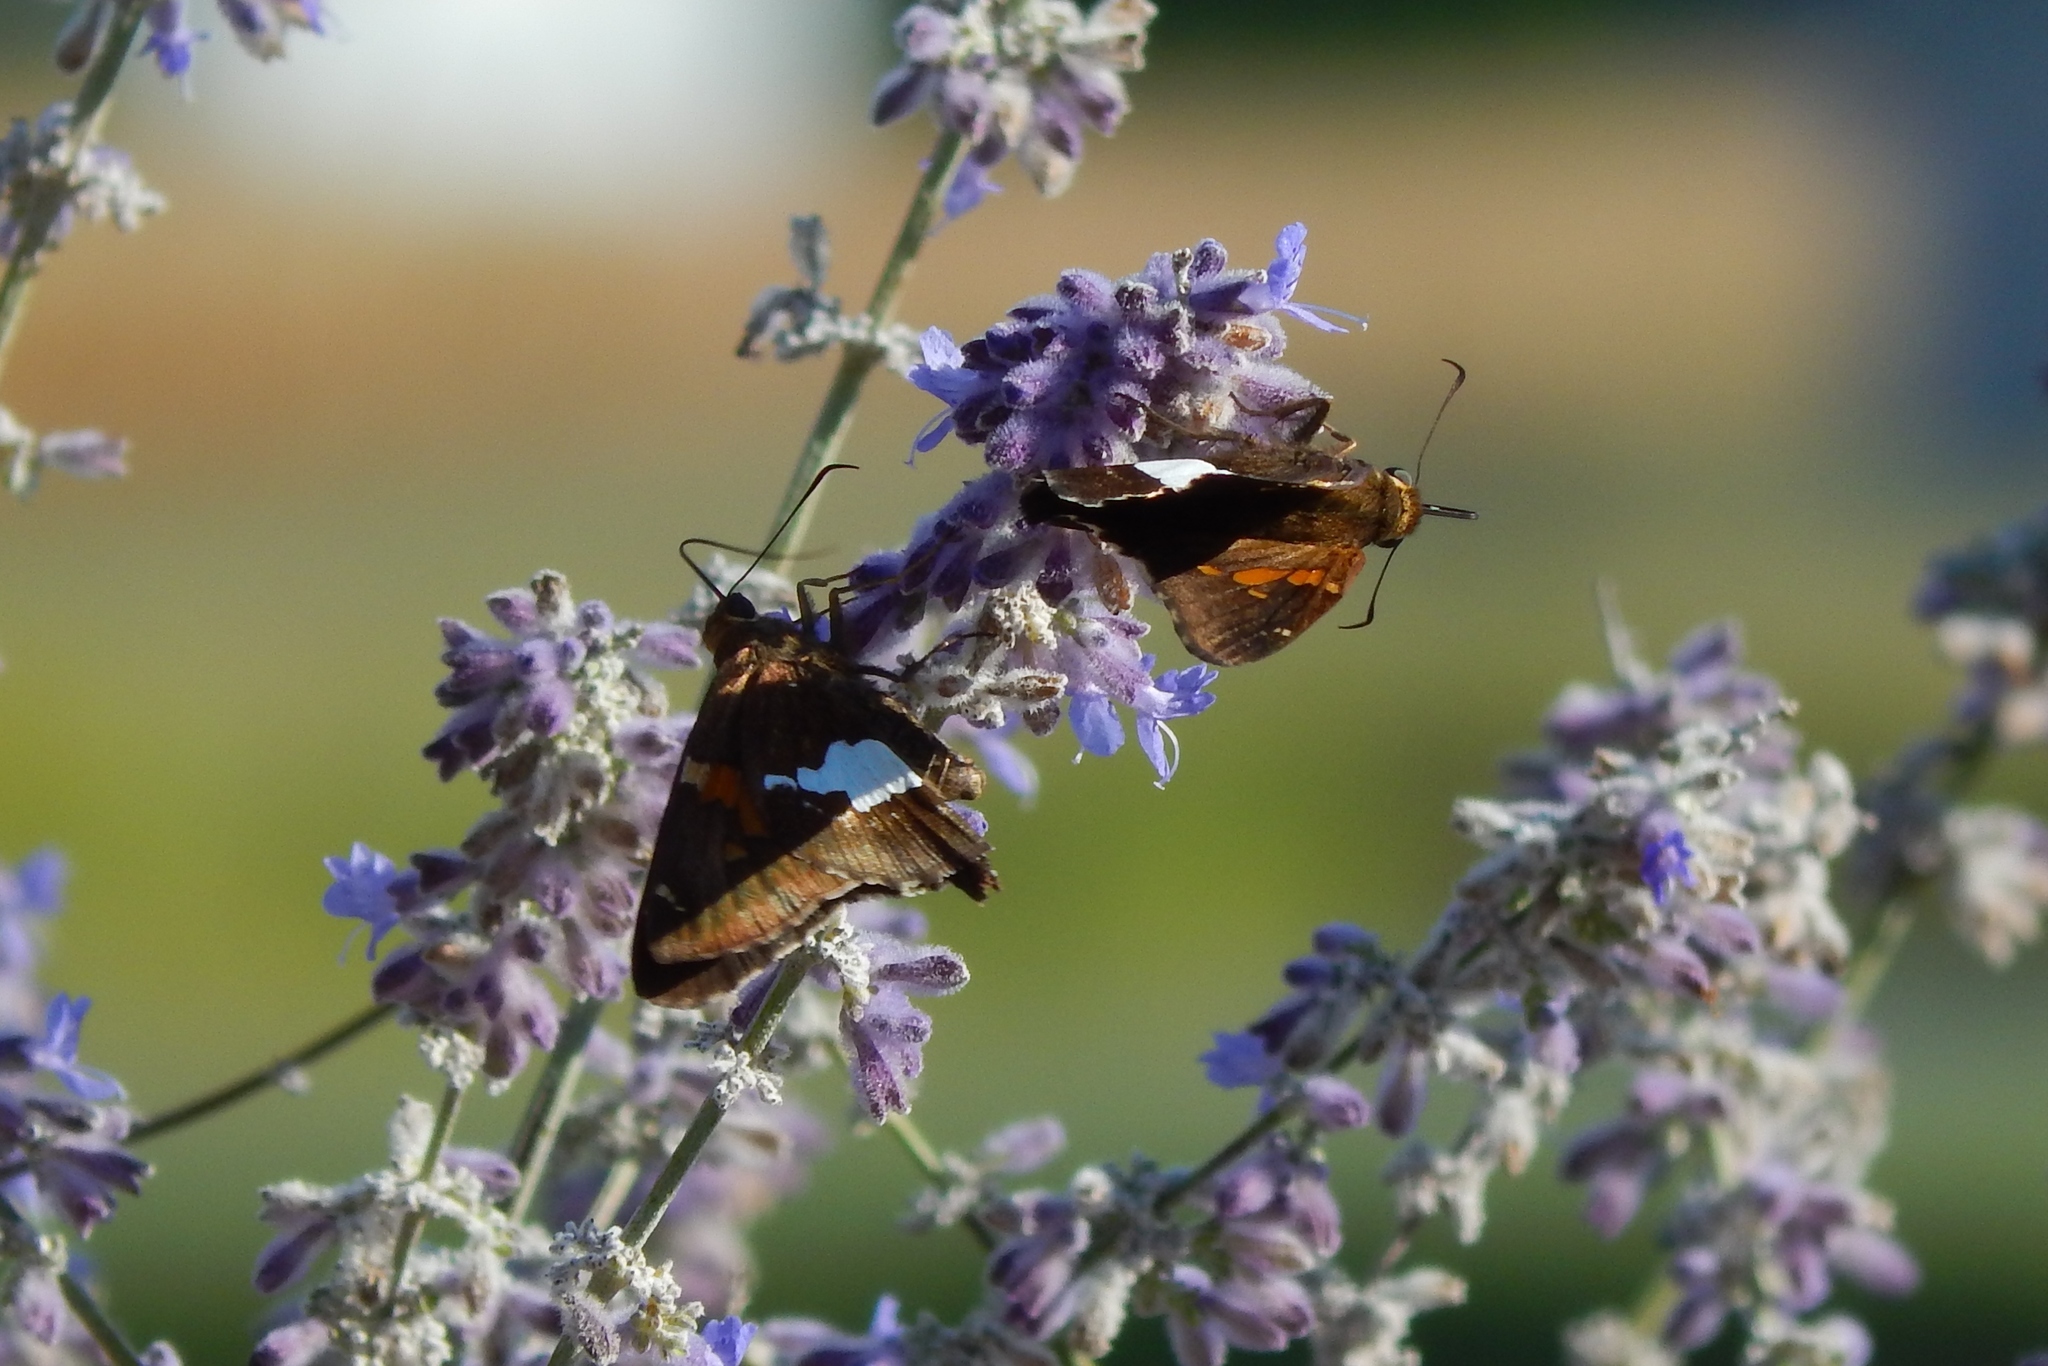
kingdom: Animalia
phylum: Arthropoda
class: Insecta
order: Lepidoptera
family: Hesperiidae
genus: Epargyreus
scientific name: Epargyreus clarus
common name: Silver-spotted skipper
